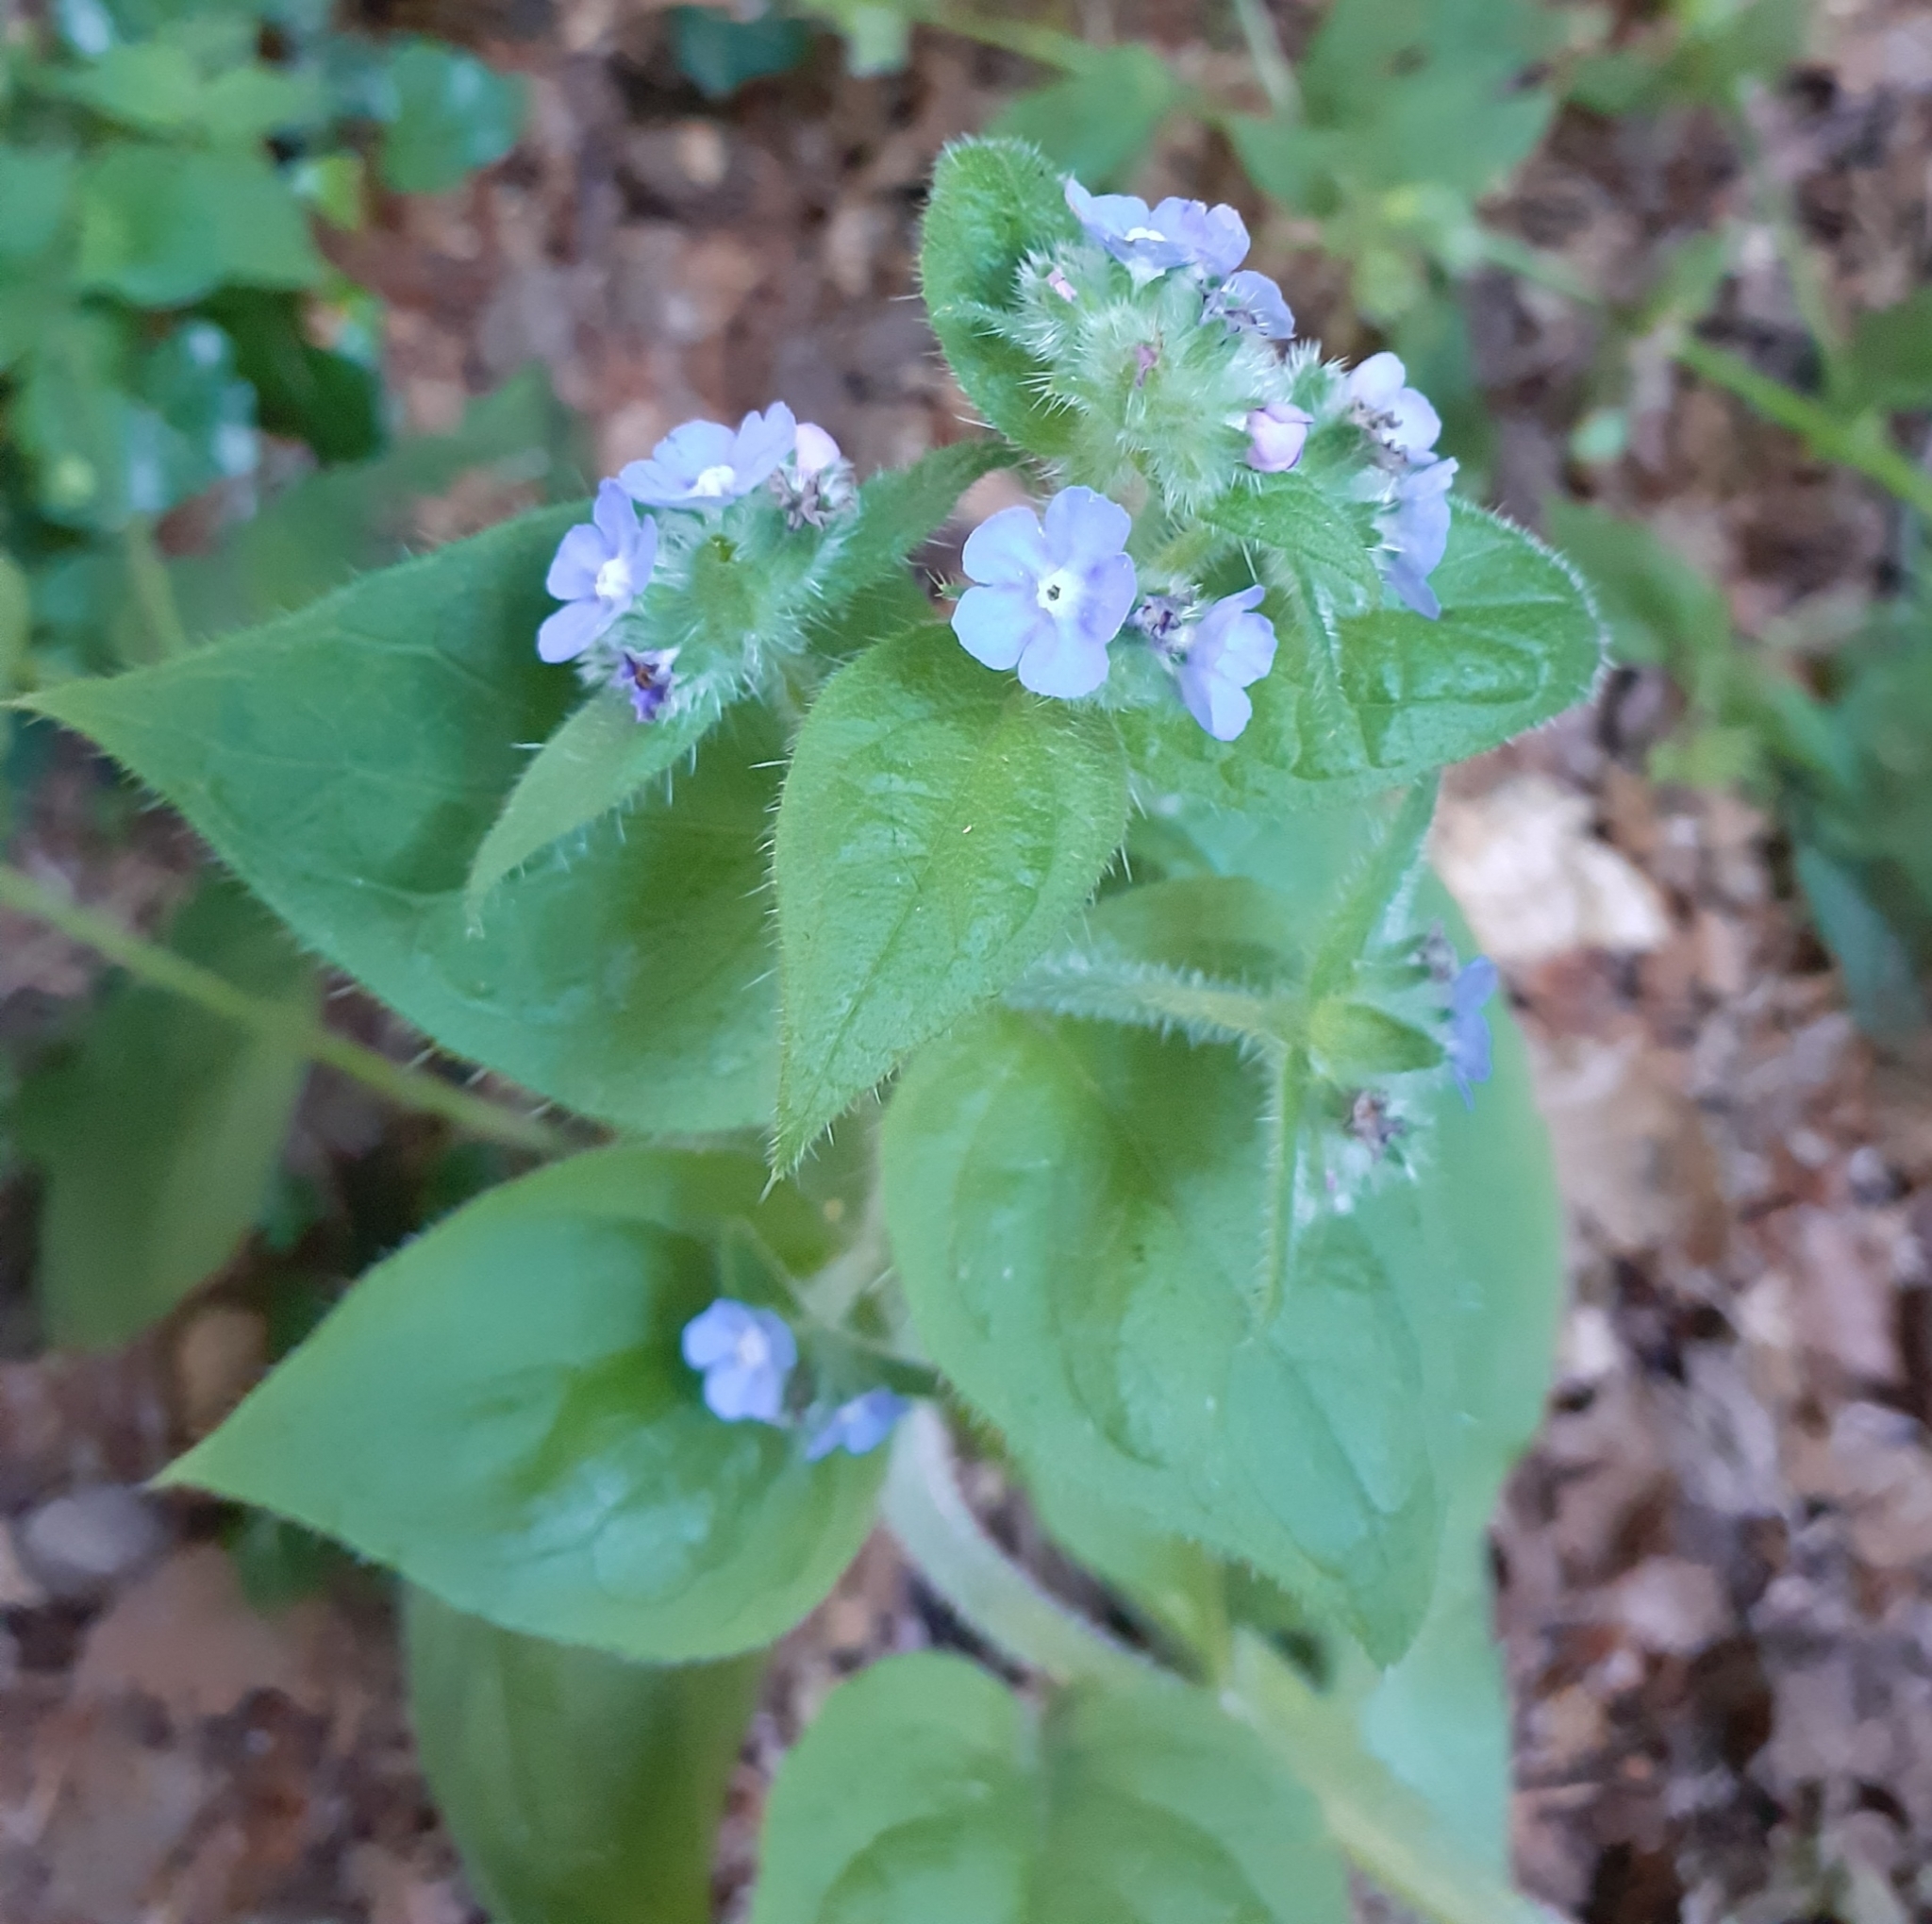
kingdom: Plantae
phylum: Tracheophyta
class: Magnoliopsida
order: Boraginales
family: Boraginaceae
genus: Pentaglottis
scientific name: Pentaglottis sempervirens
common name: Green alkanet
